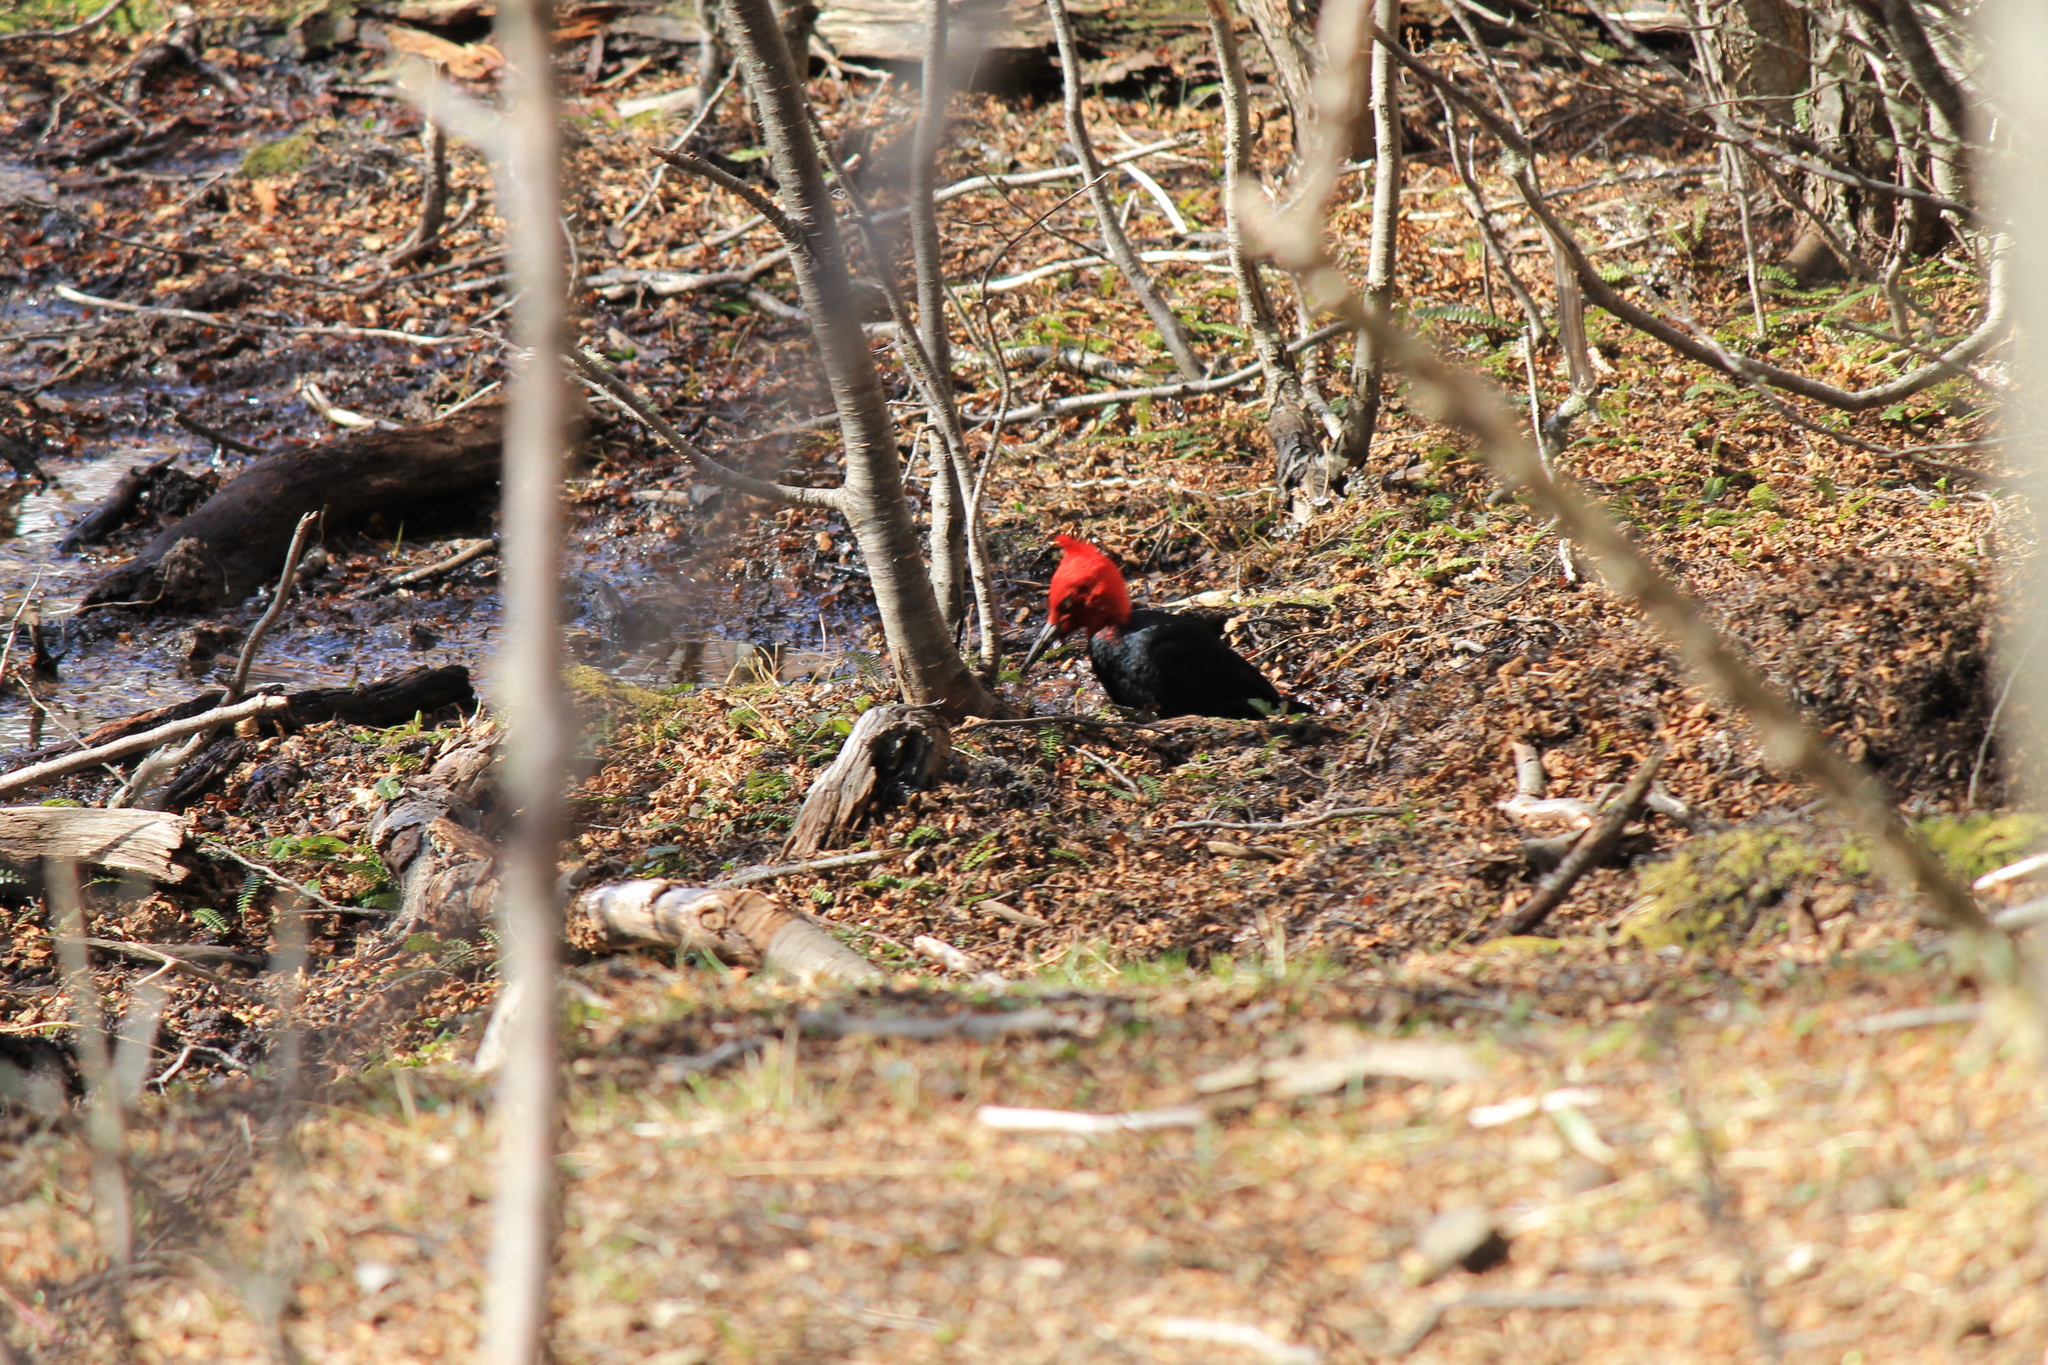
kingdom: Animalia
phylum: Chordata
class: Aves
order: Piciformes
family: Picidae
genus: Campephilus
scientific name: Campephilus magellanicus
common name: Magellanic woodpecker
